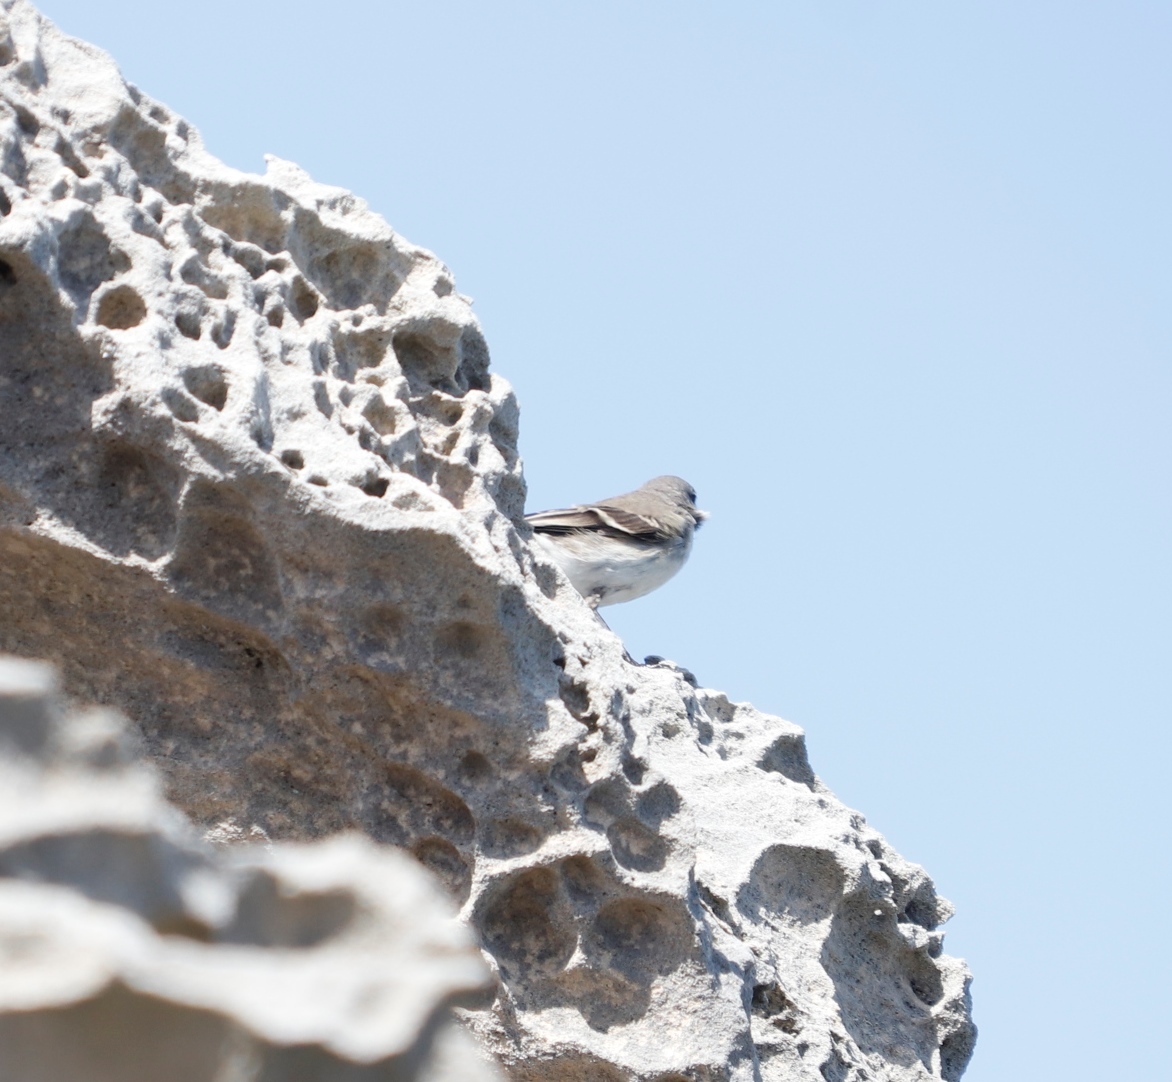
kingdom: Animalia
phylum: Chordata
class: Aves
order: Passeriformes
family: Motacillidae
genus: Motacilla
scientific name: Motacilla capensis
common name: Cape wagtail
